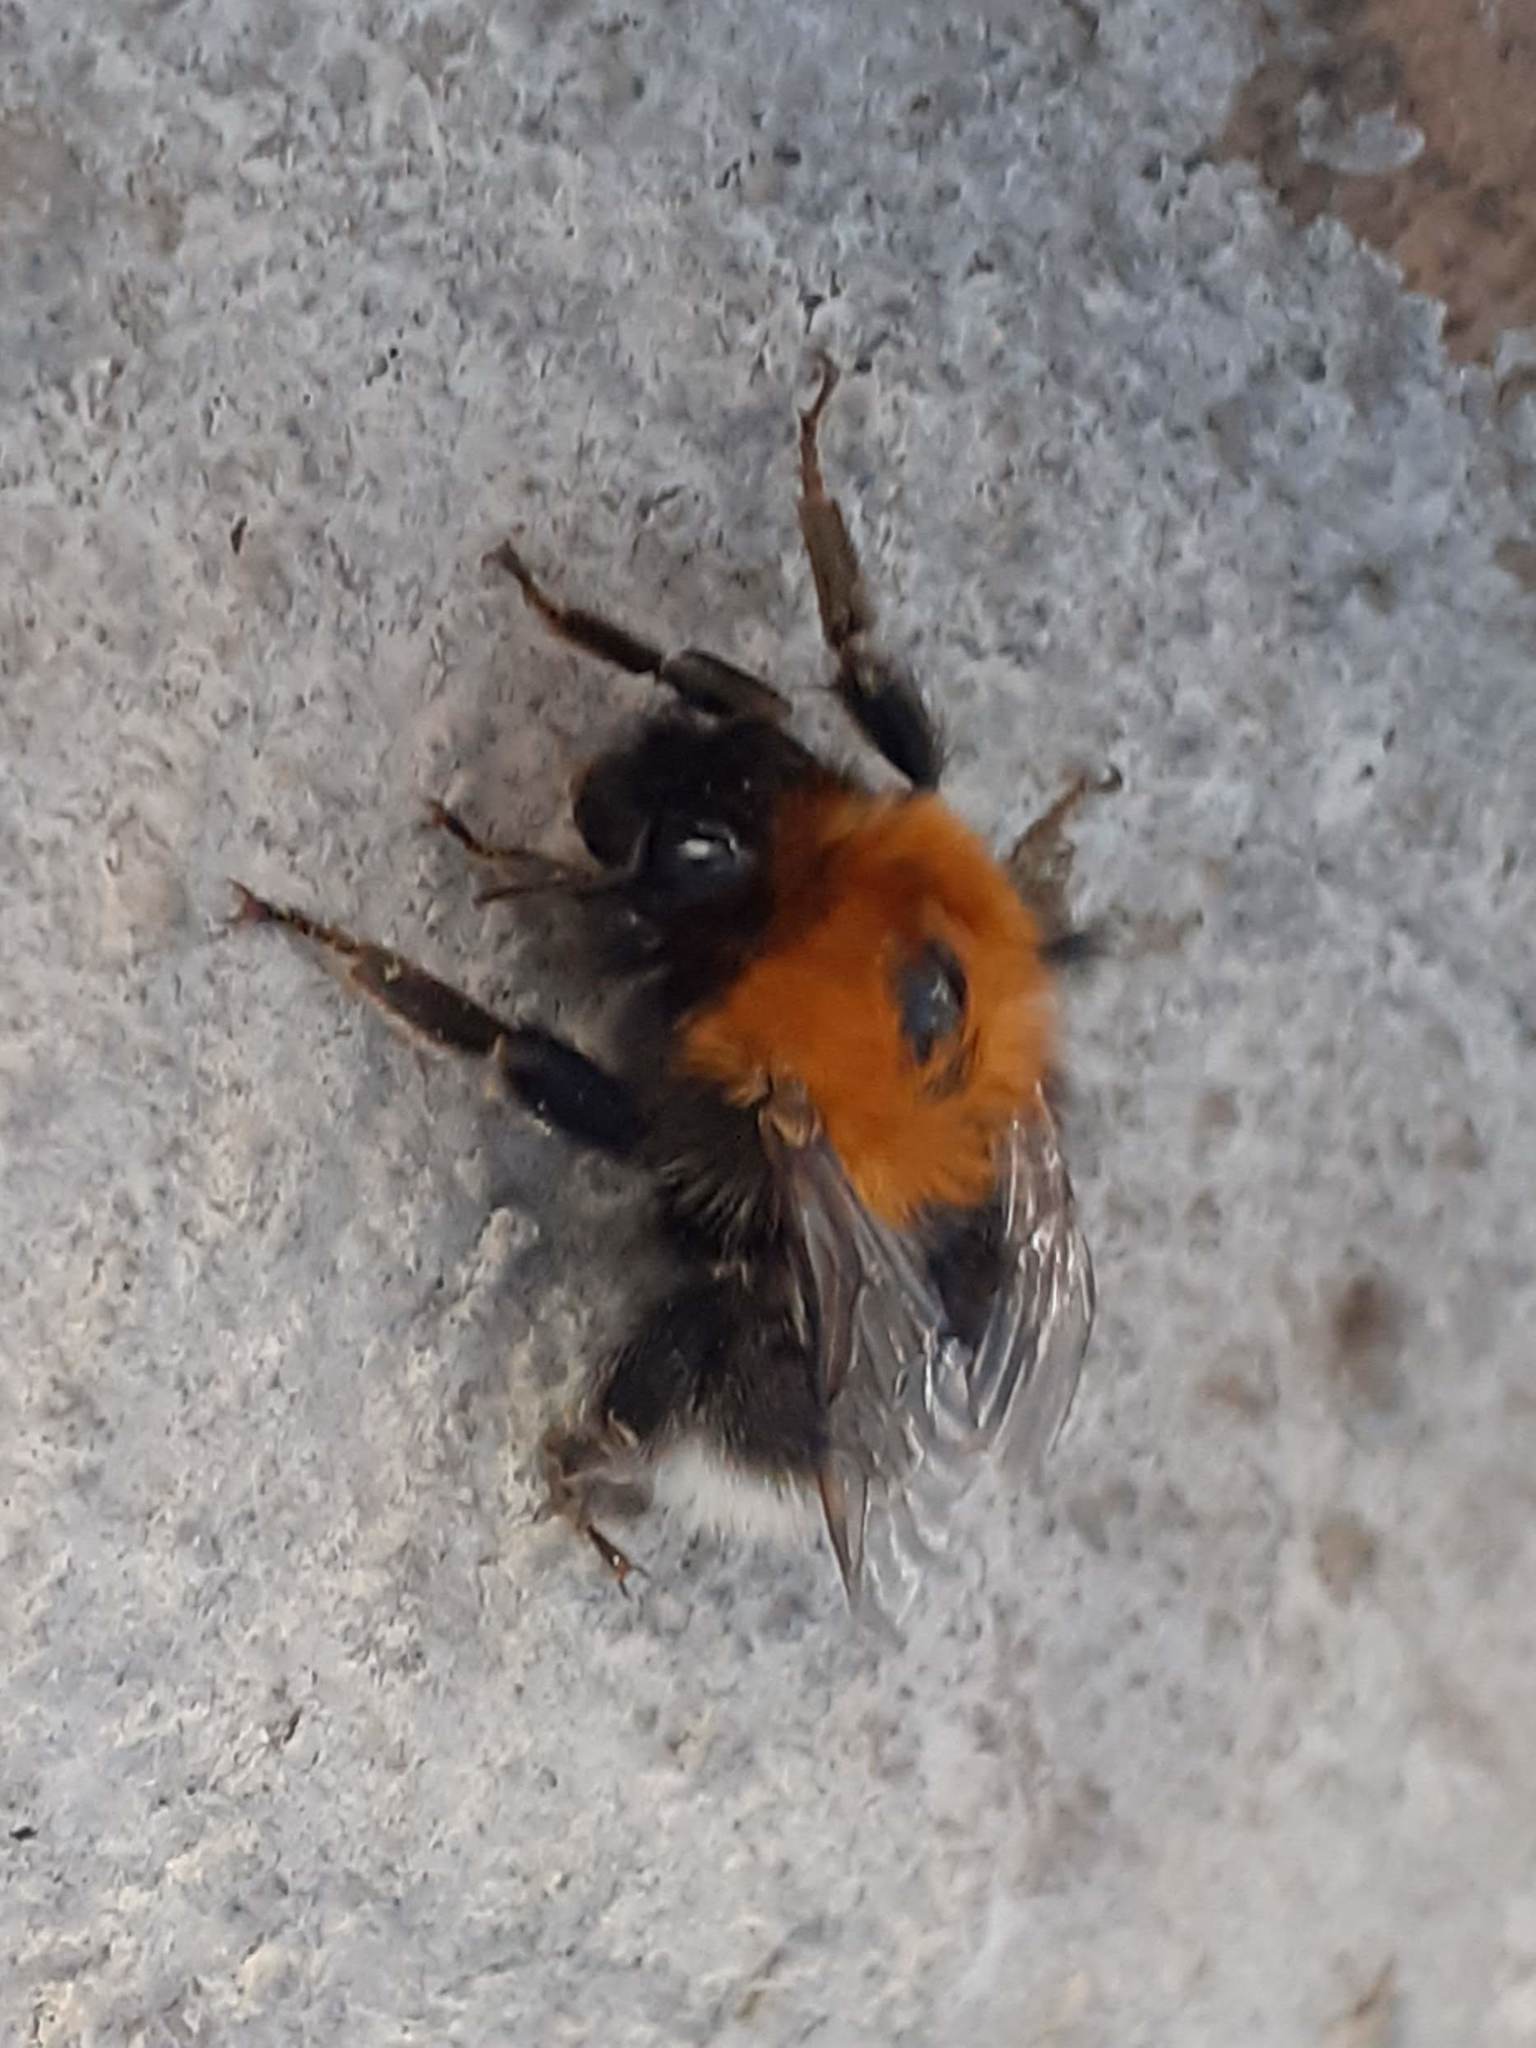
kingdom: Animalia
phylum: Arthropoda
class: Insecta
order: Hymenoptera
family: Apidae
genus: Bombus
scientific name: Bombus hypnorum
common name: New garden bumblebee
